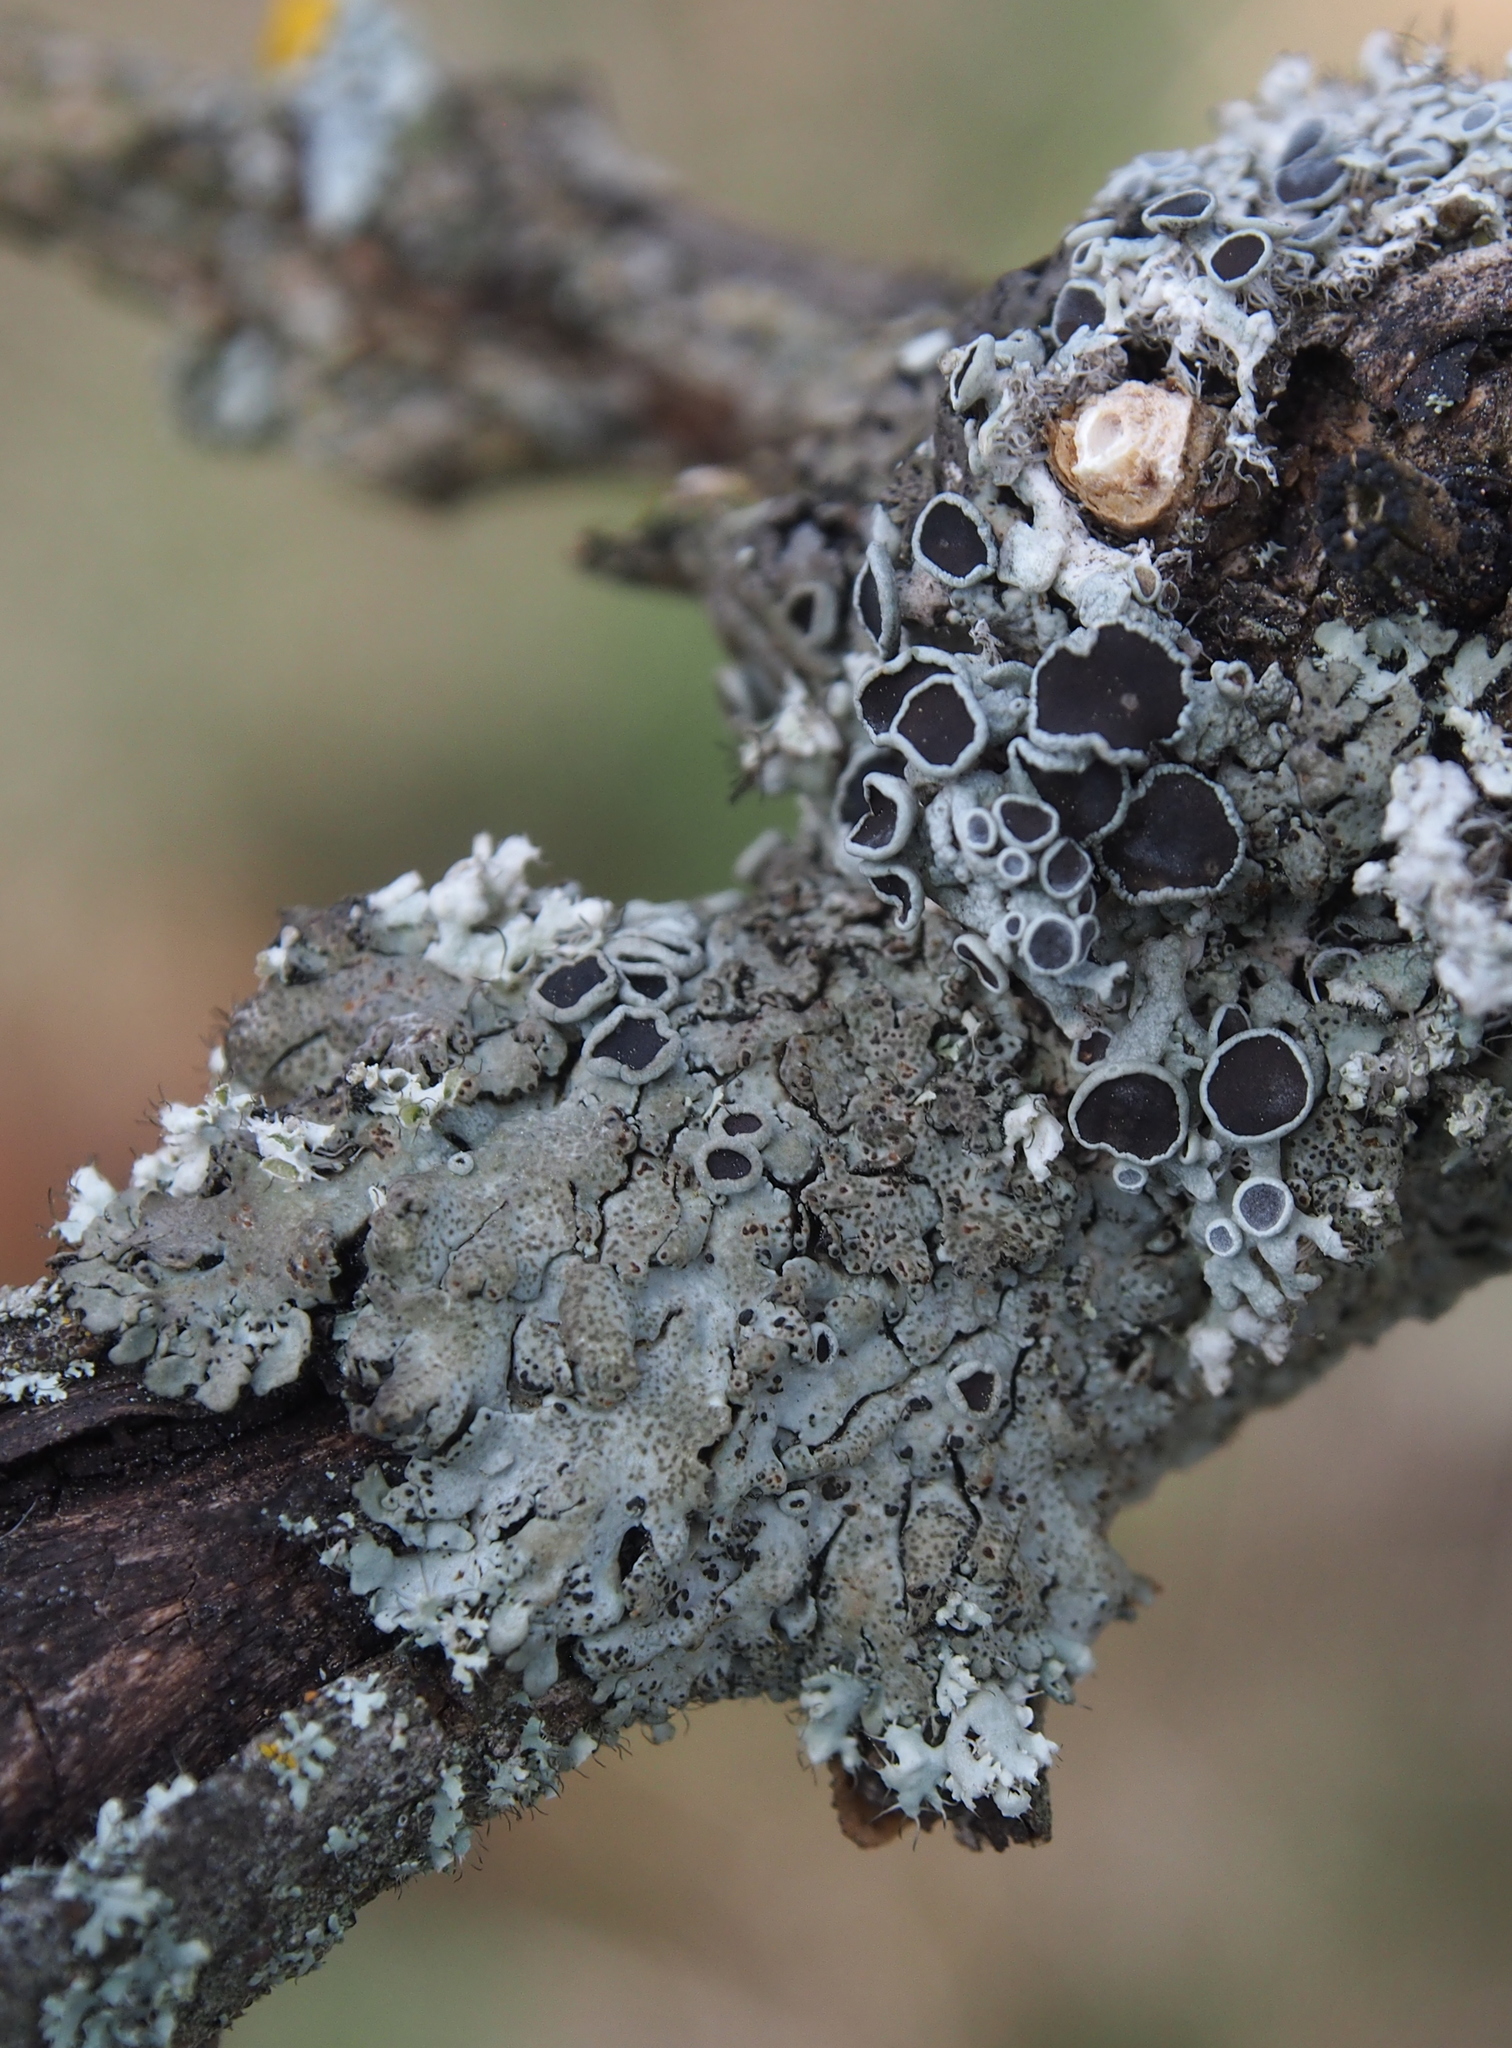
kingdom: Fungi
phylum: Ascomycota
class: Lecanoromycetes
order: Caliciales
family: Physciaceae
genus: Physcia
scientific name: Physcia aipolia
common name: Hoary rosette lichen
